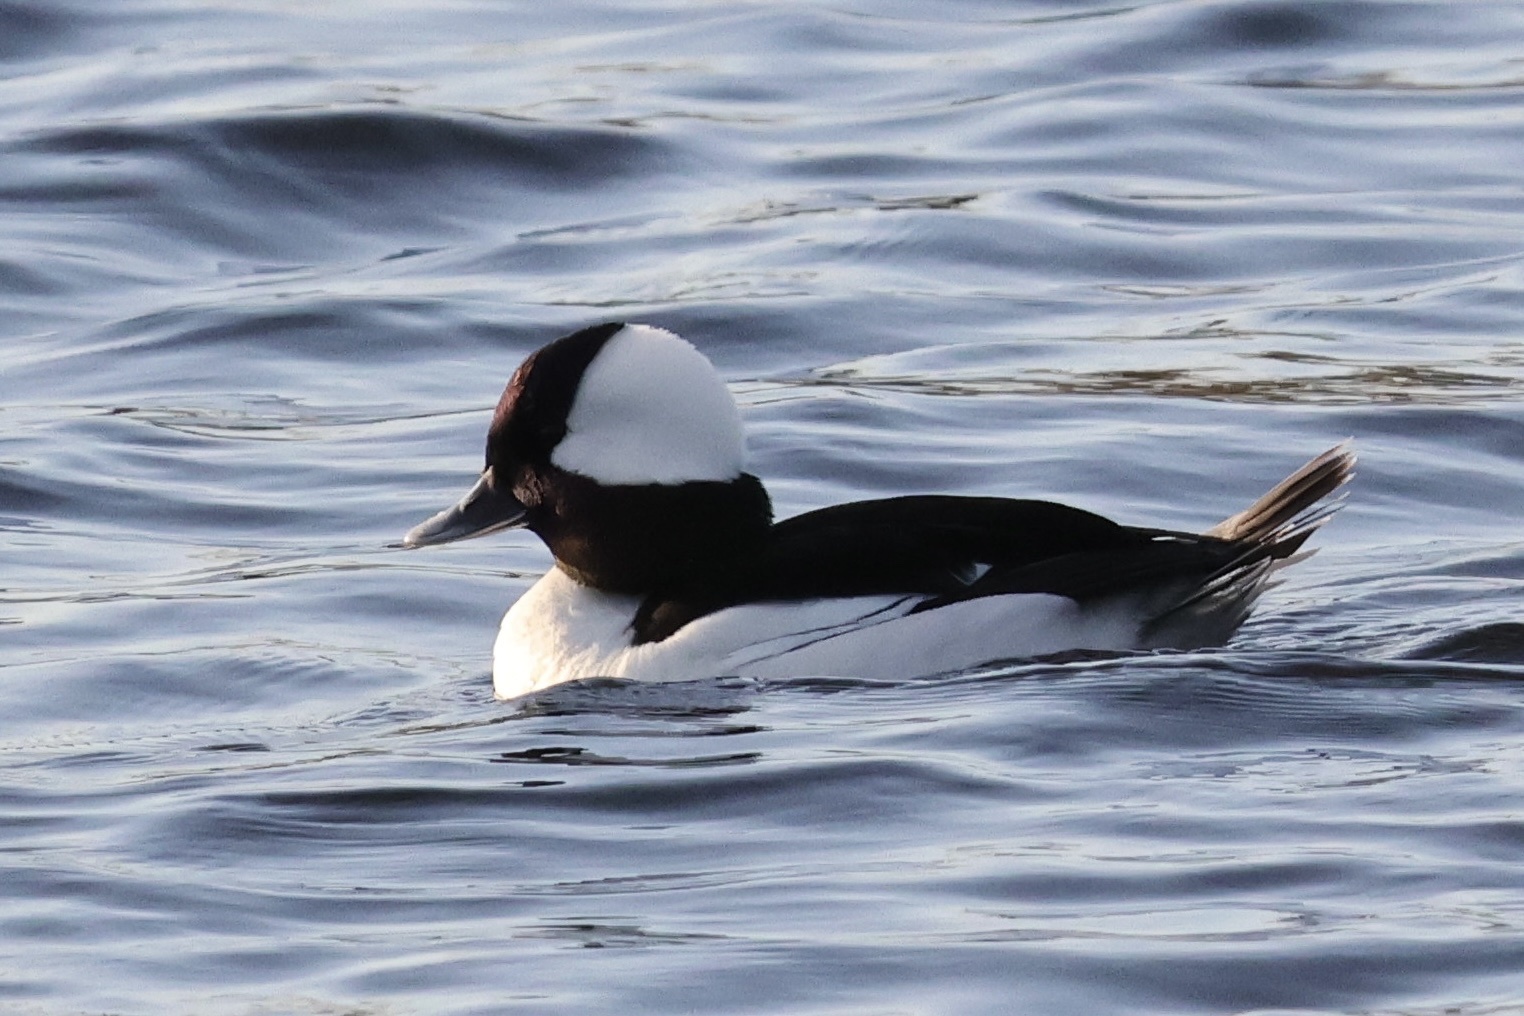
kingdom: Animalia
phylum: Chordata
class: Aves
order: Anseriformes
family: Anatidae
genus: Bucephala
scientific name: Bucephala albeola
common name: Bufflehead
